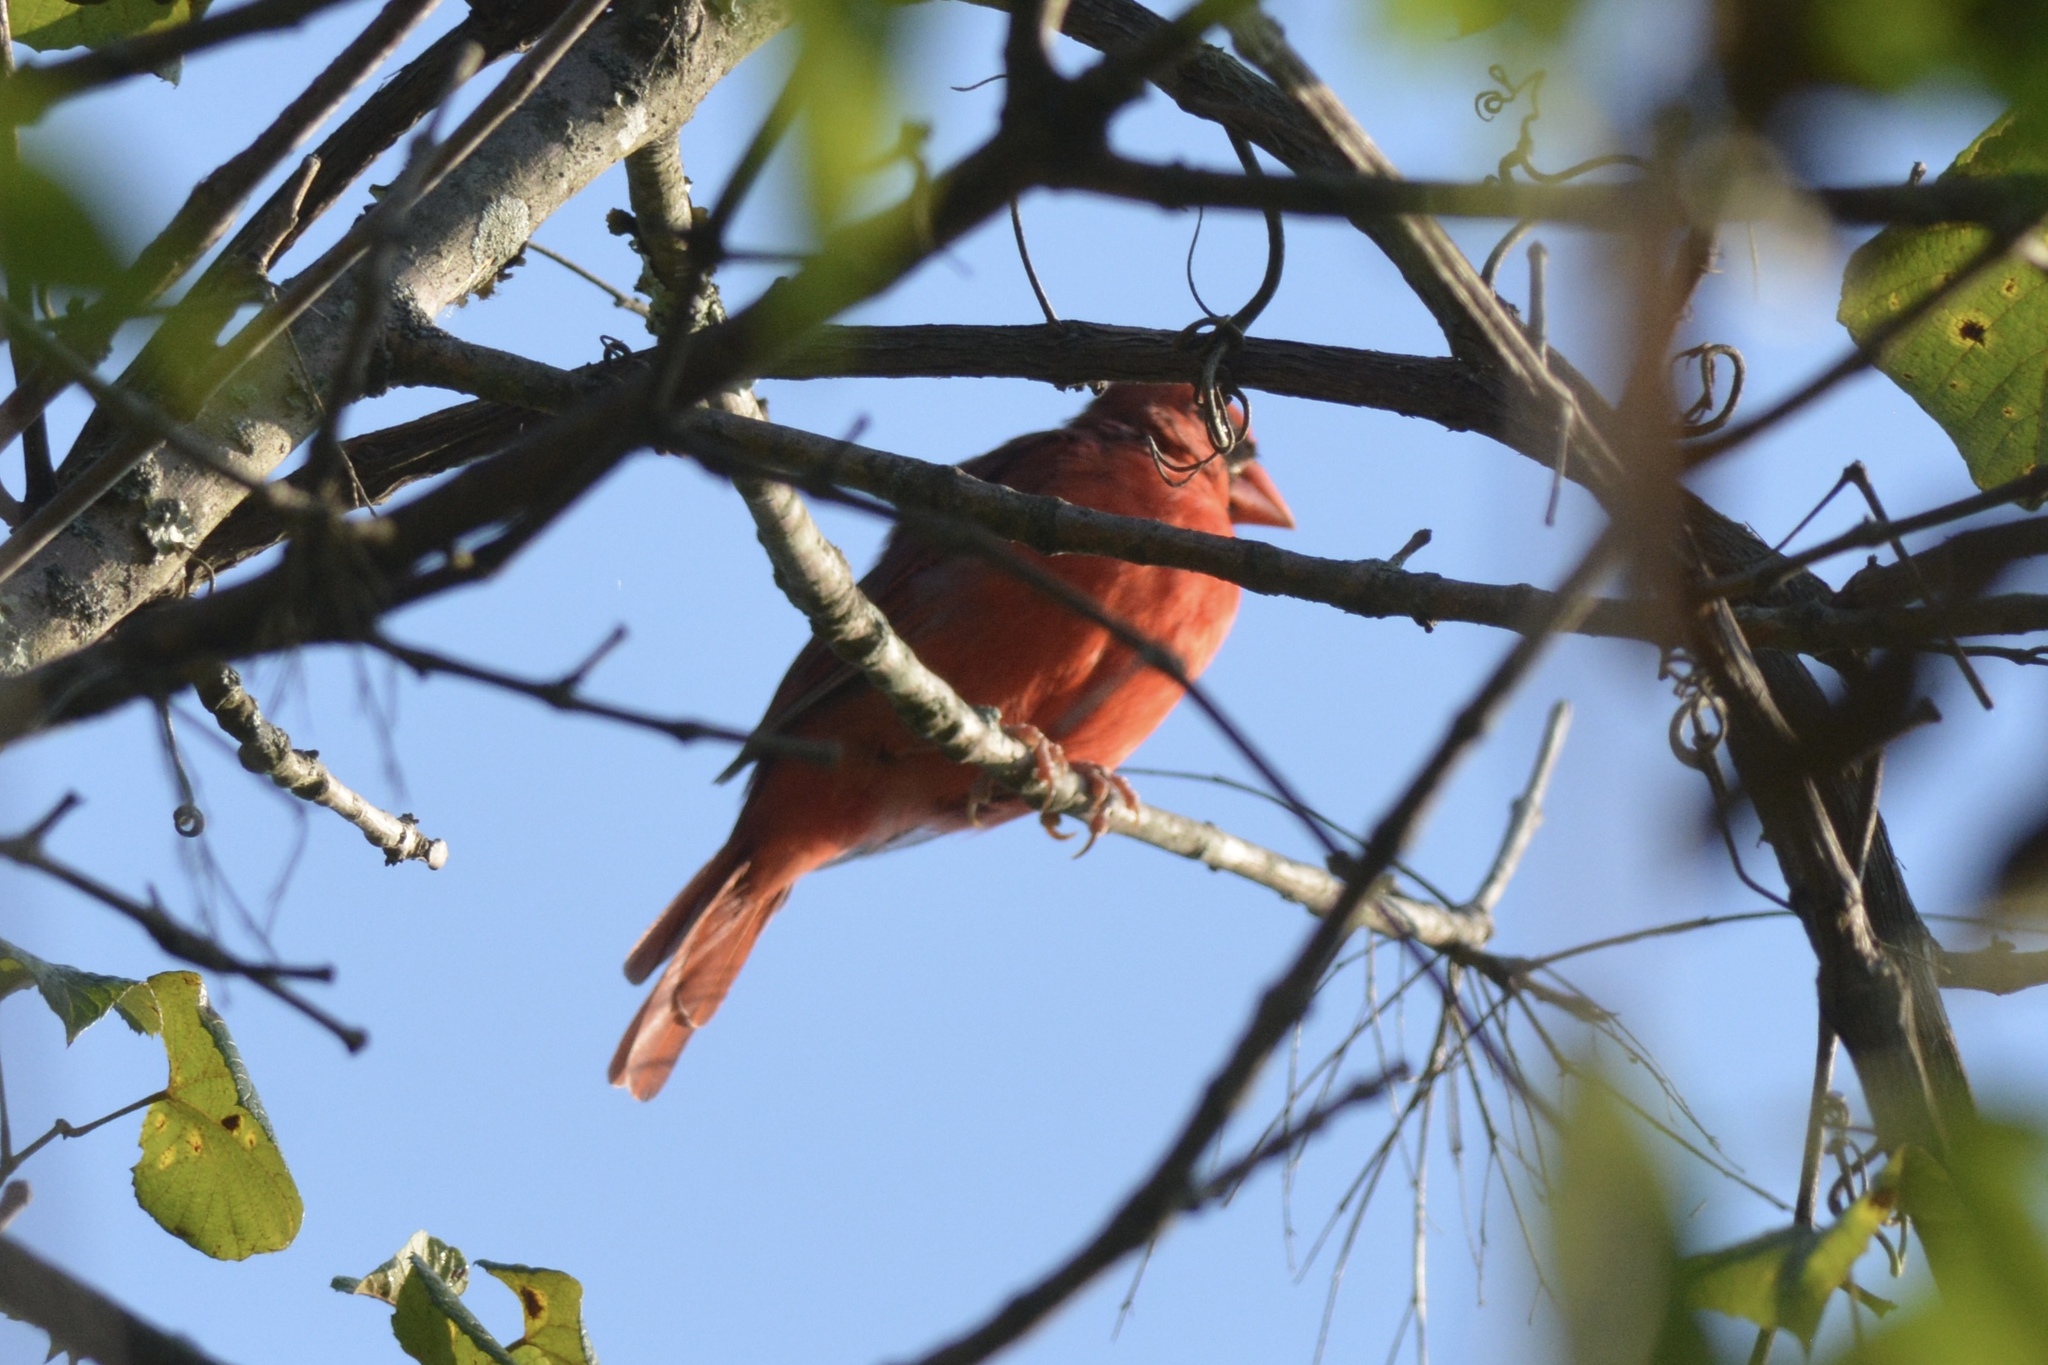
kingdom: Animalia
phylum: Chordata
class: Aves
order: Passeriformes
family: Cardinalidae
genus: Cardinalis
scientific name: Cardinalis cardinalis
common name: Northern cardinal
